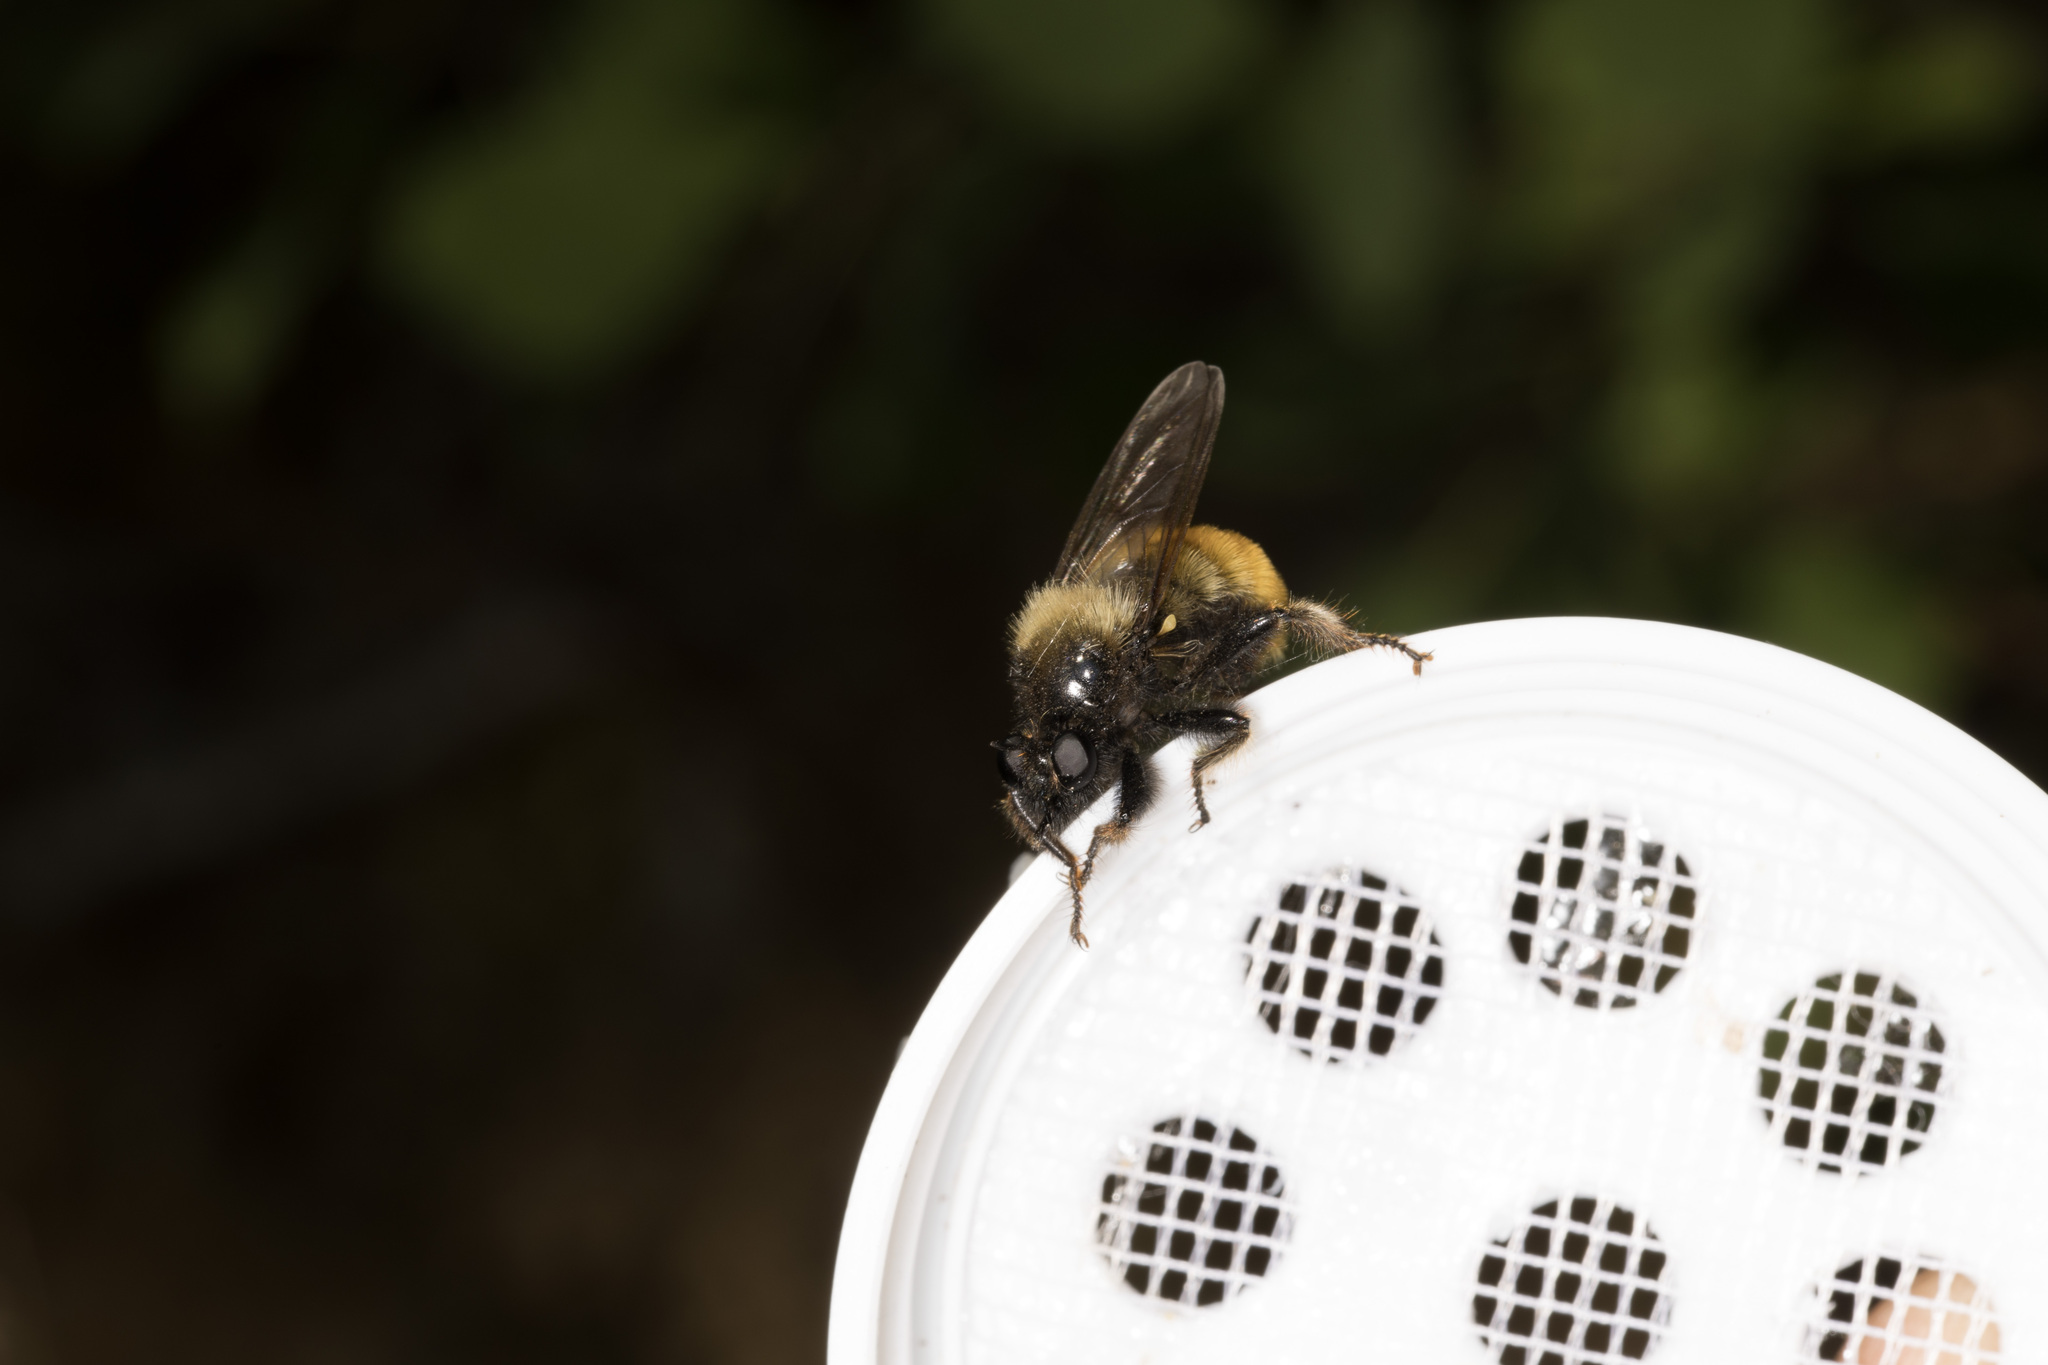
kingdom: Animalia
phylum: Arthropoda
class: Insecta
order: Diptera
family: Asilidae
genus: Laphria
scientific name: Laphria flava
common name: Bumblebee robberfly
